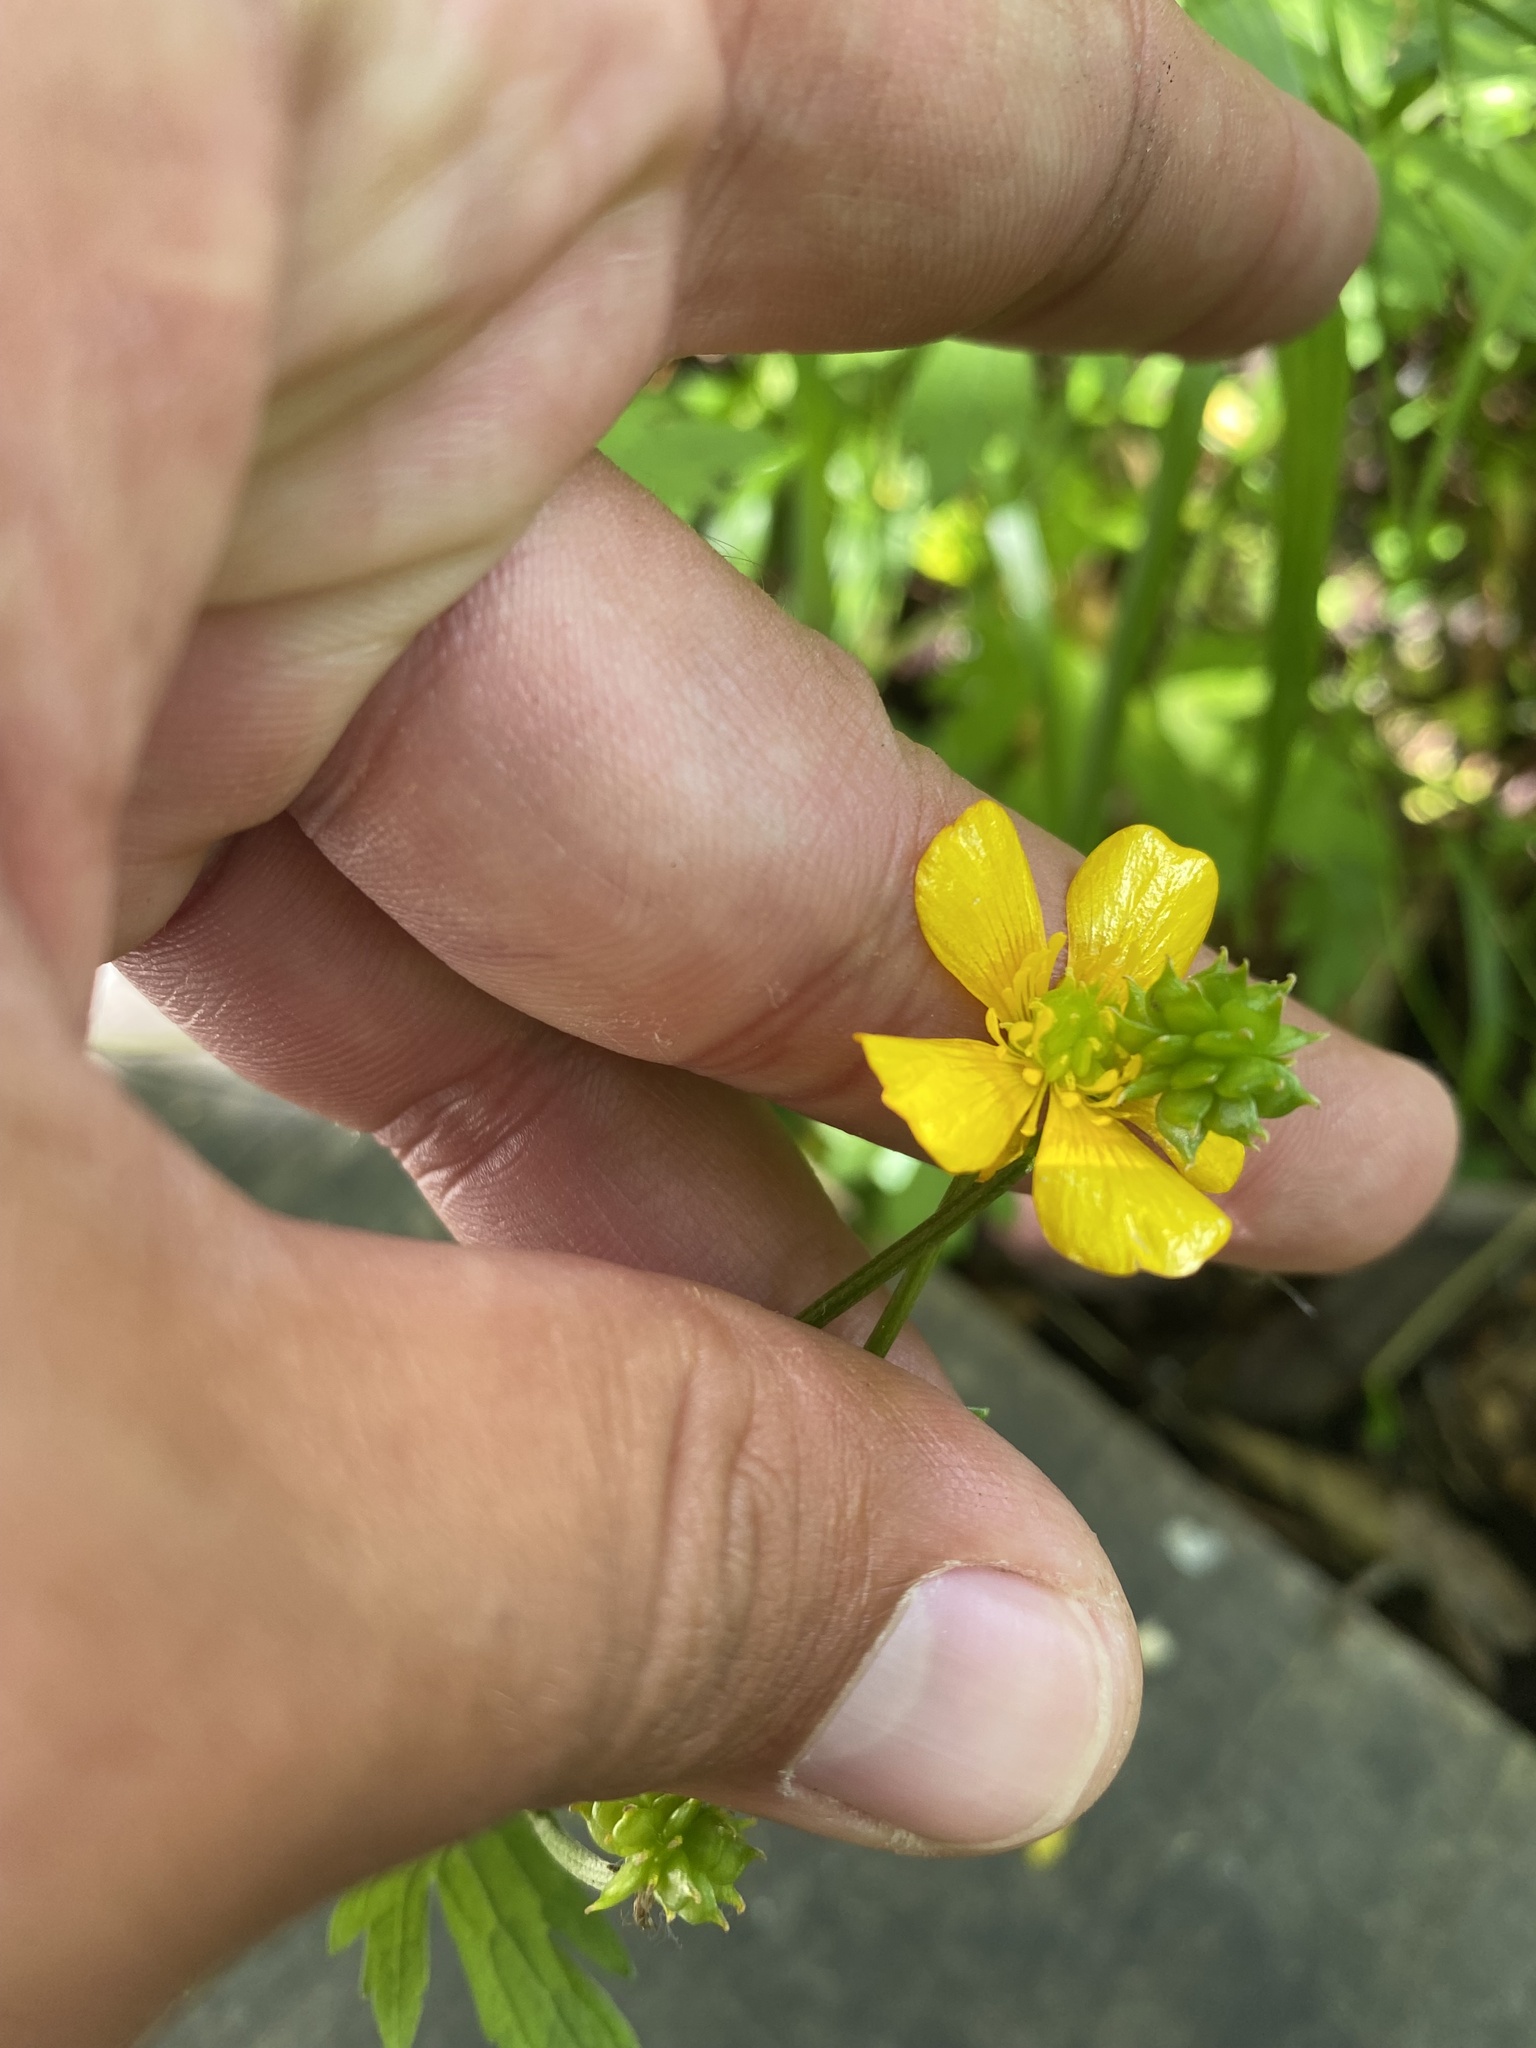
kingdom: Plantae
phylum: Tracheophyta
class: Magnoliopsida
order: Ranunculales
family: Ranunculaceae
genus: Ranunculus
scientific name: Ranunculus repens
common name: Creeping buttercup
